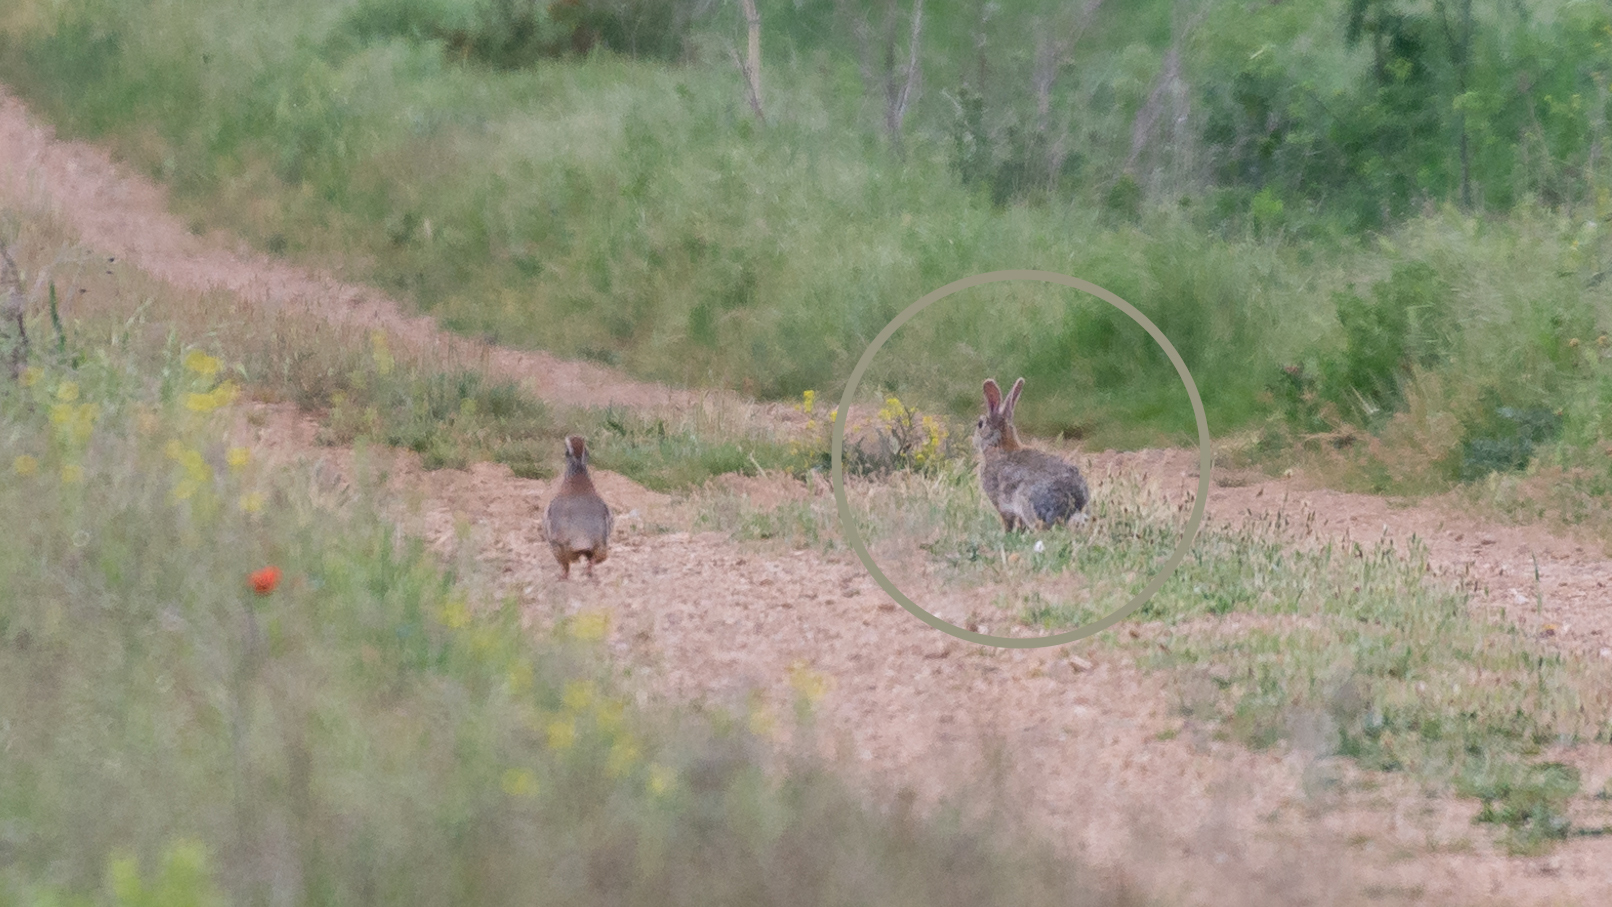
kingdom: Animalia
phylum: Chordata
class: Mammalia
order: Lagomorpha
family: Leporidae
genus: Oryctolagus
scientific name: Oryctolagus cuniculus
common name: European rabbit
